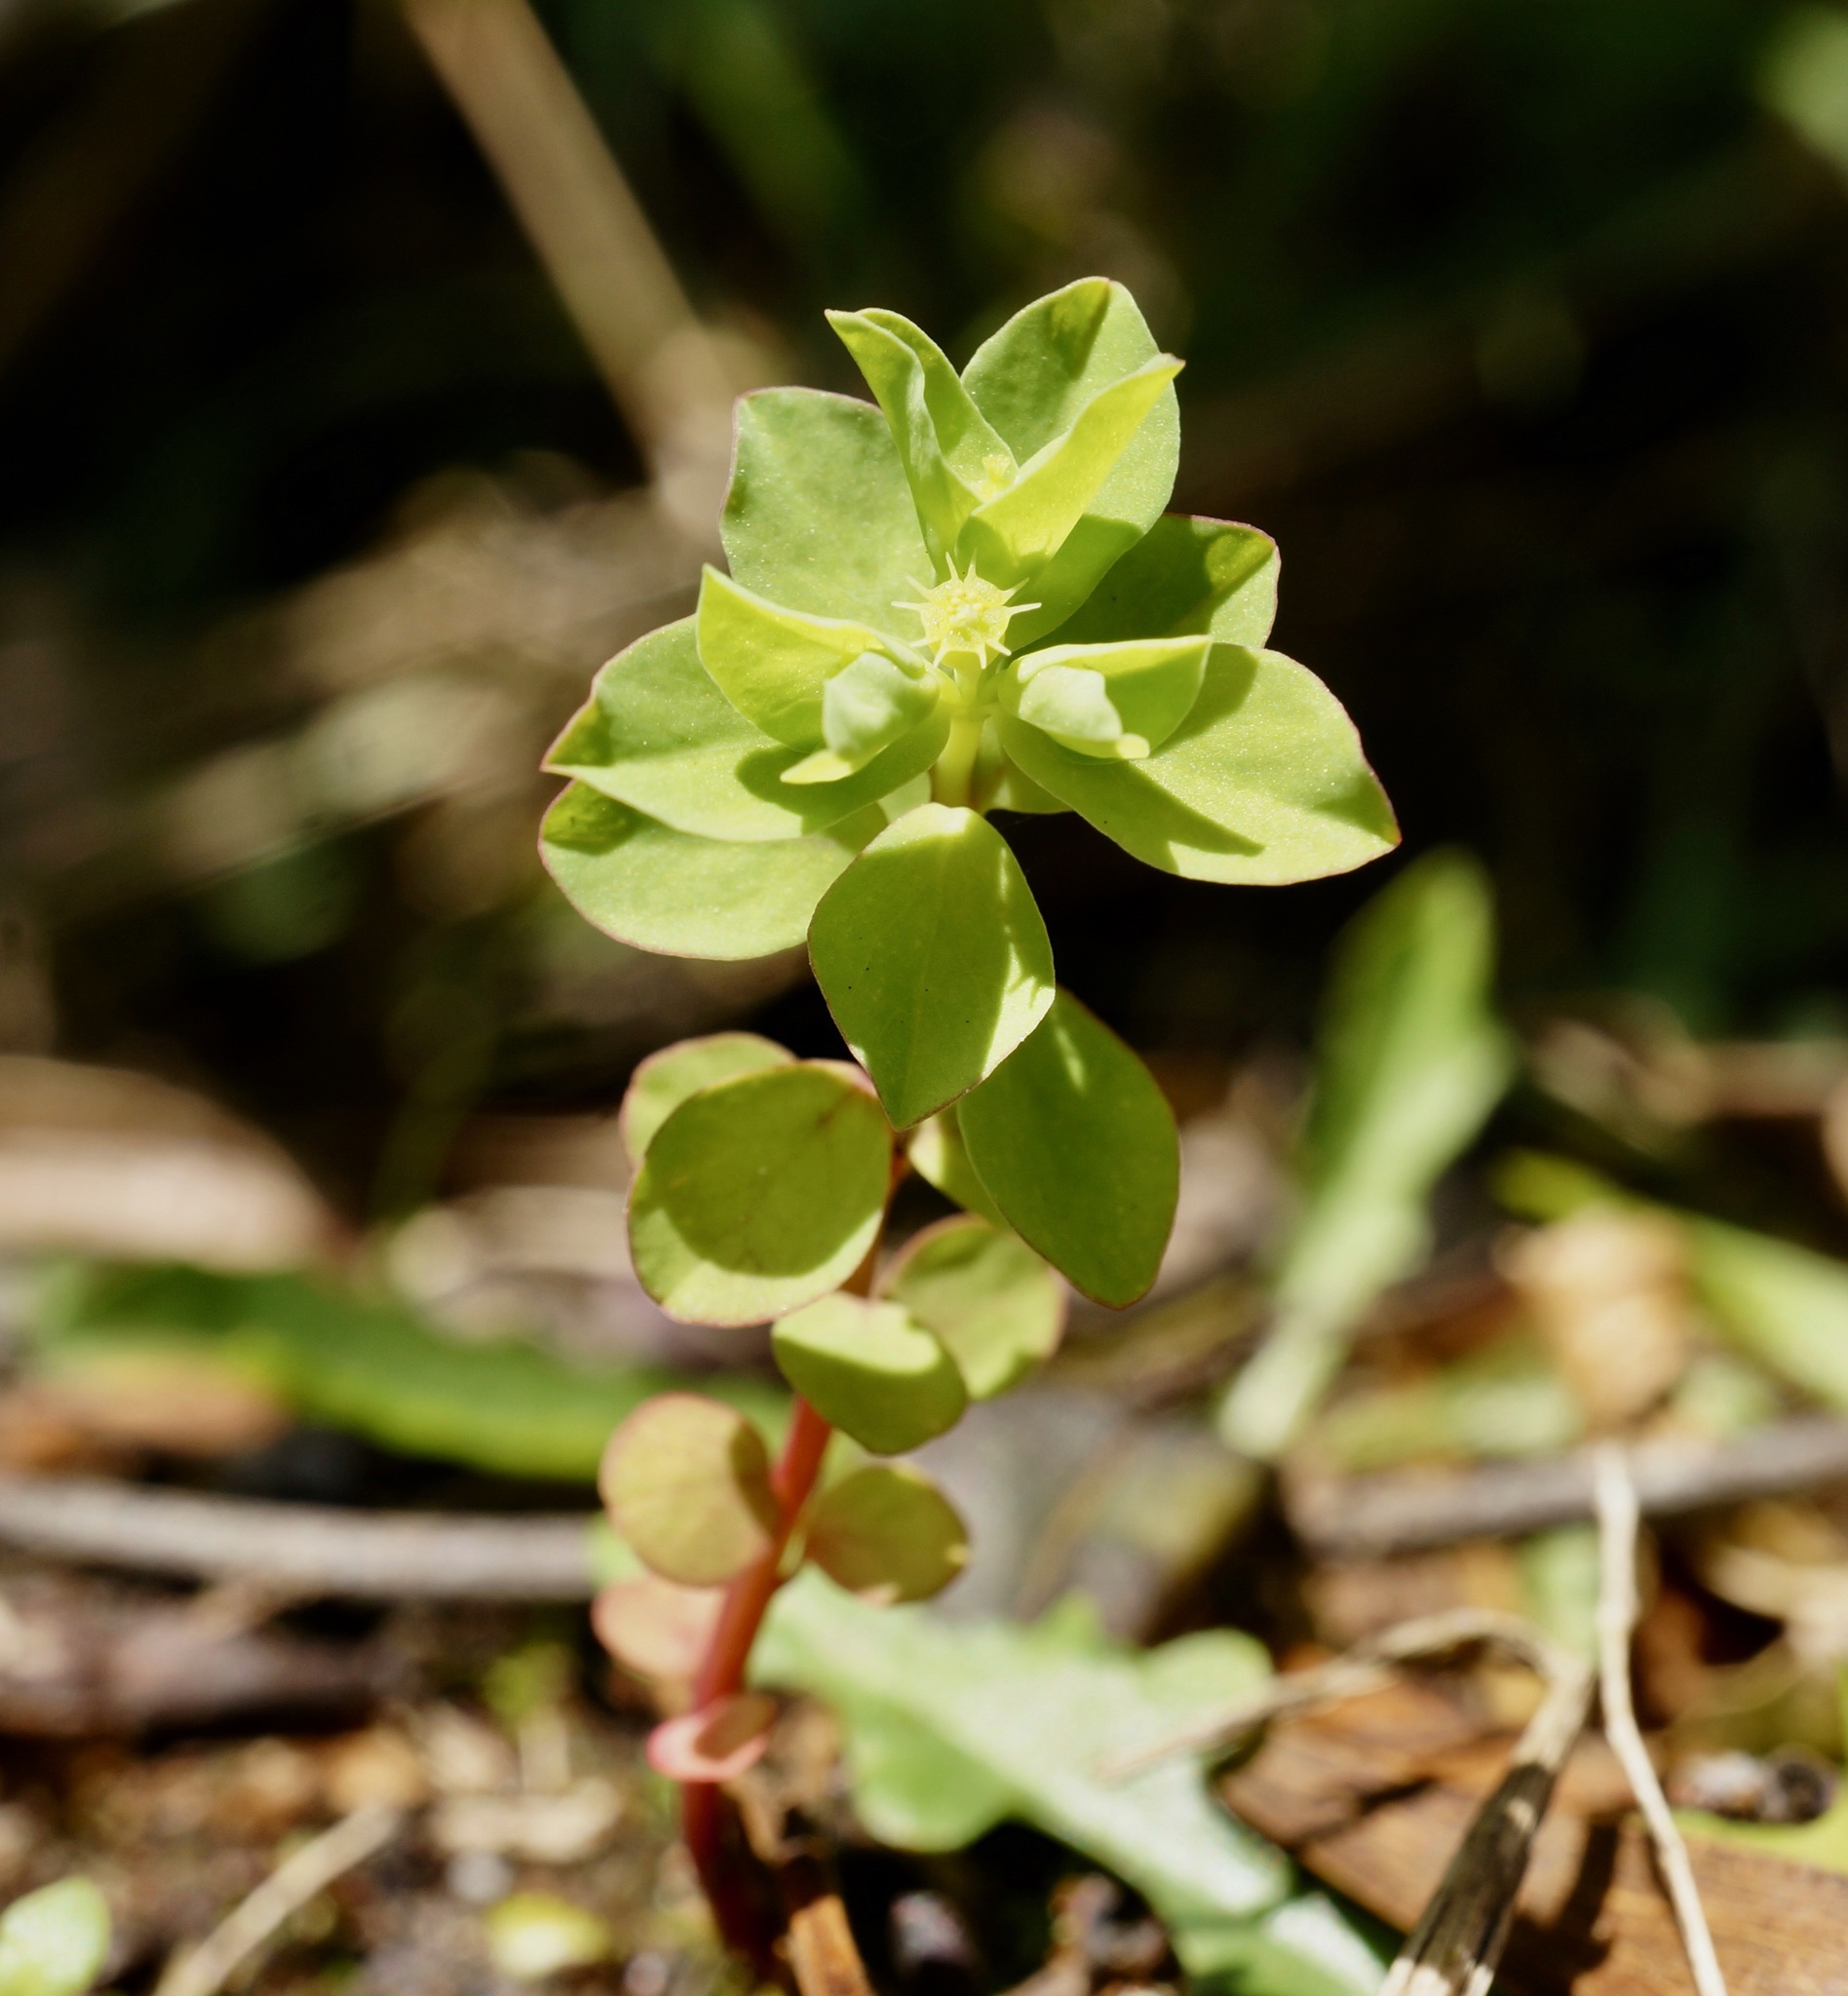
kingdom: Plantae
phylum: Tracheophyta
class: Magnoliopsida
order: Malpighiales
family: Euphorbiaceae
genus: Euphorbia
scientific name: Euphorbia peplus
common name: Petty spurge
